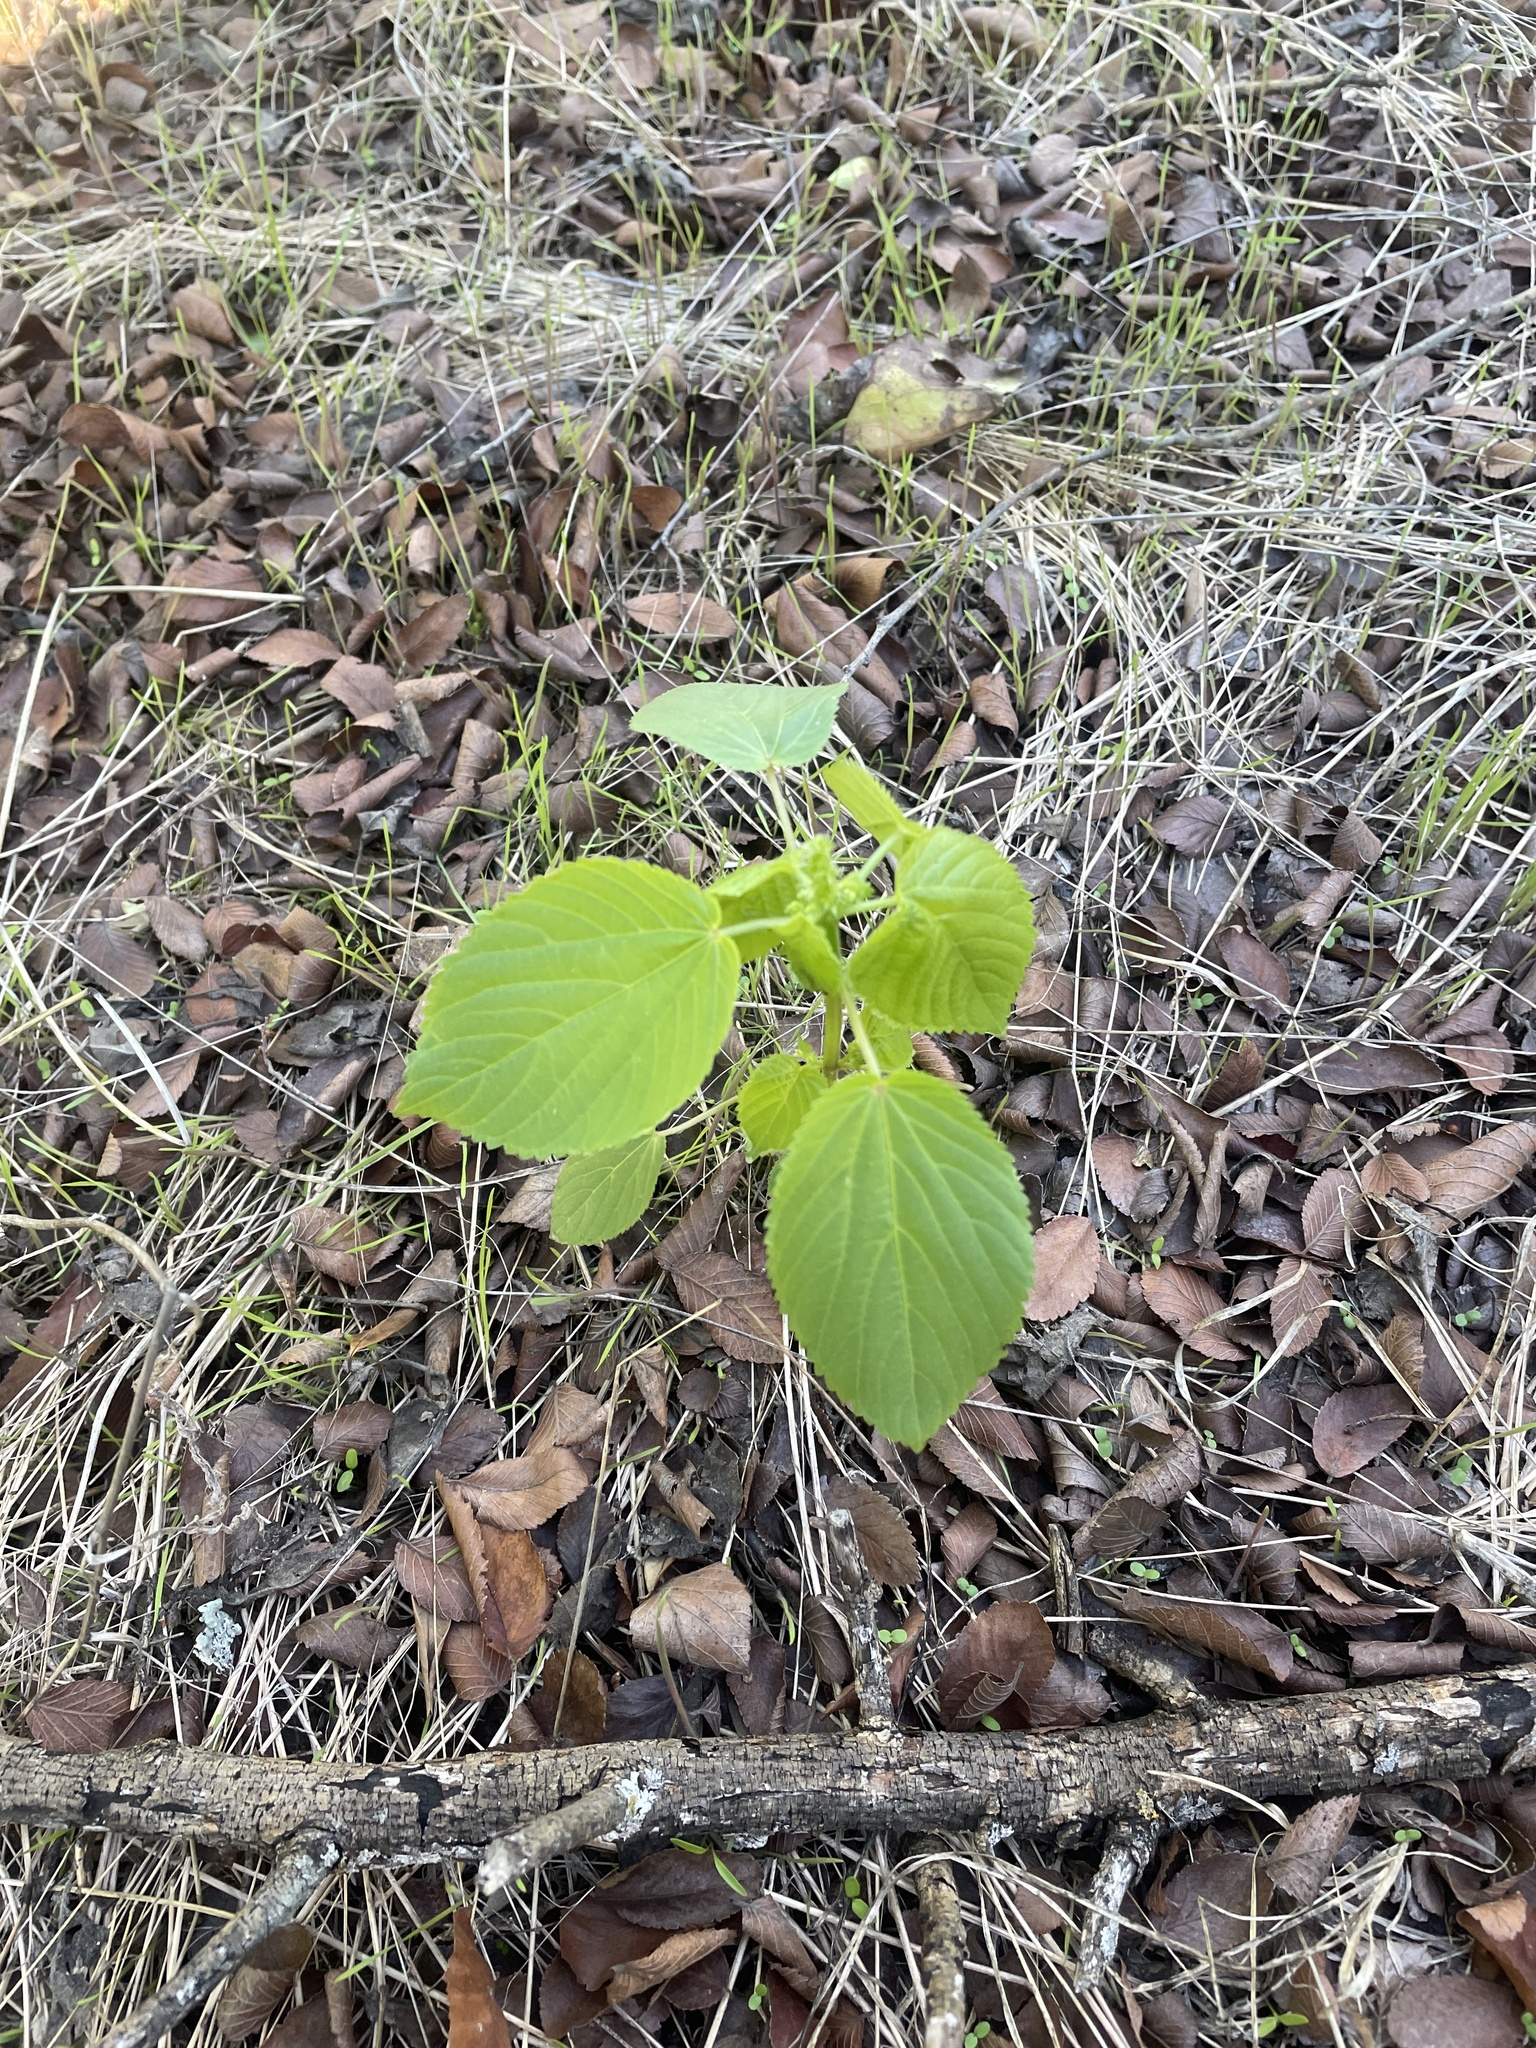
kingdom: Plantae
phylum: Tracheophyta
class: Magnoliopsida
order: Malpighiales
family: Euphorbiaceae
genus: Acalypha
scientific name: Acalypha ostryifolia
